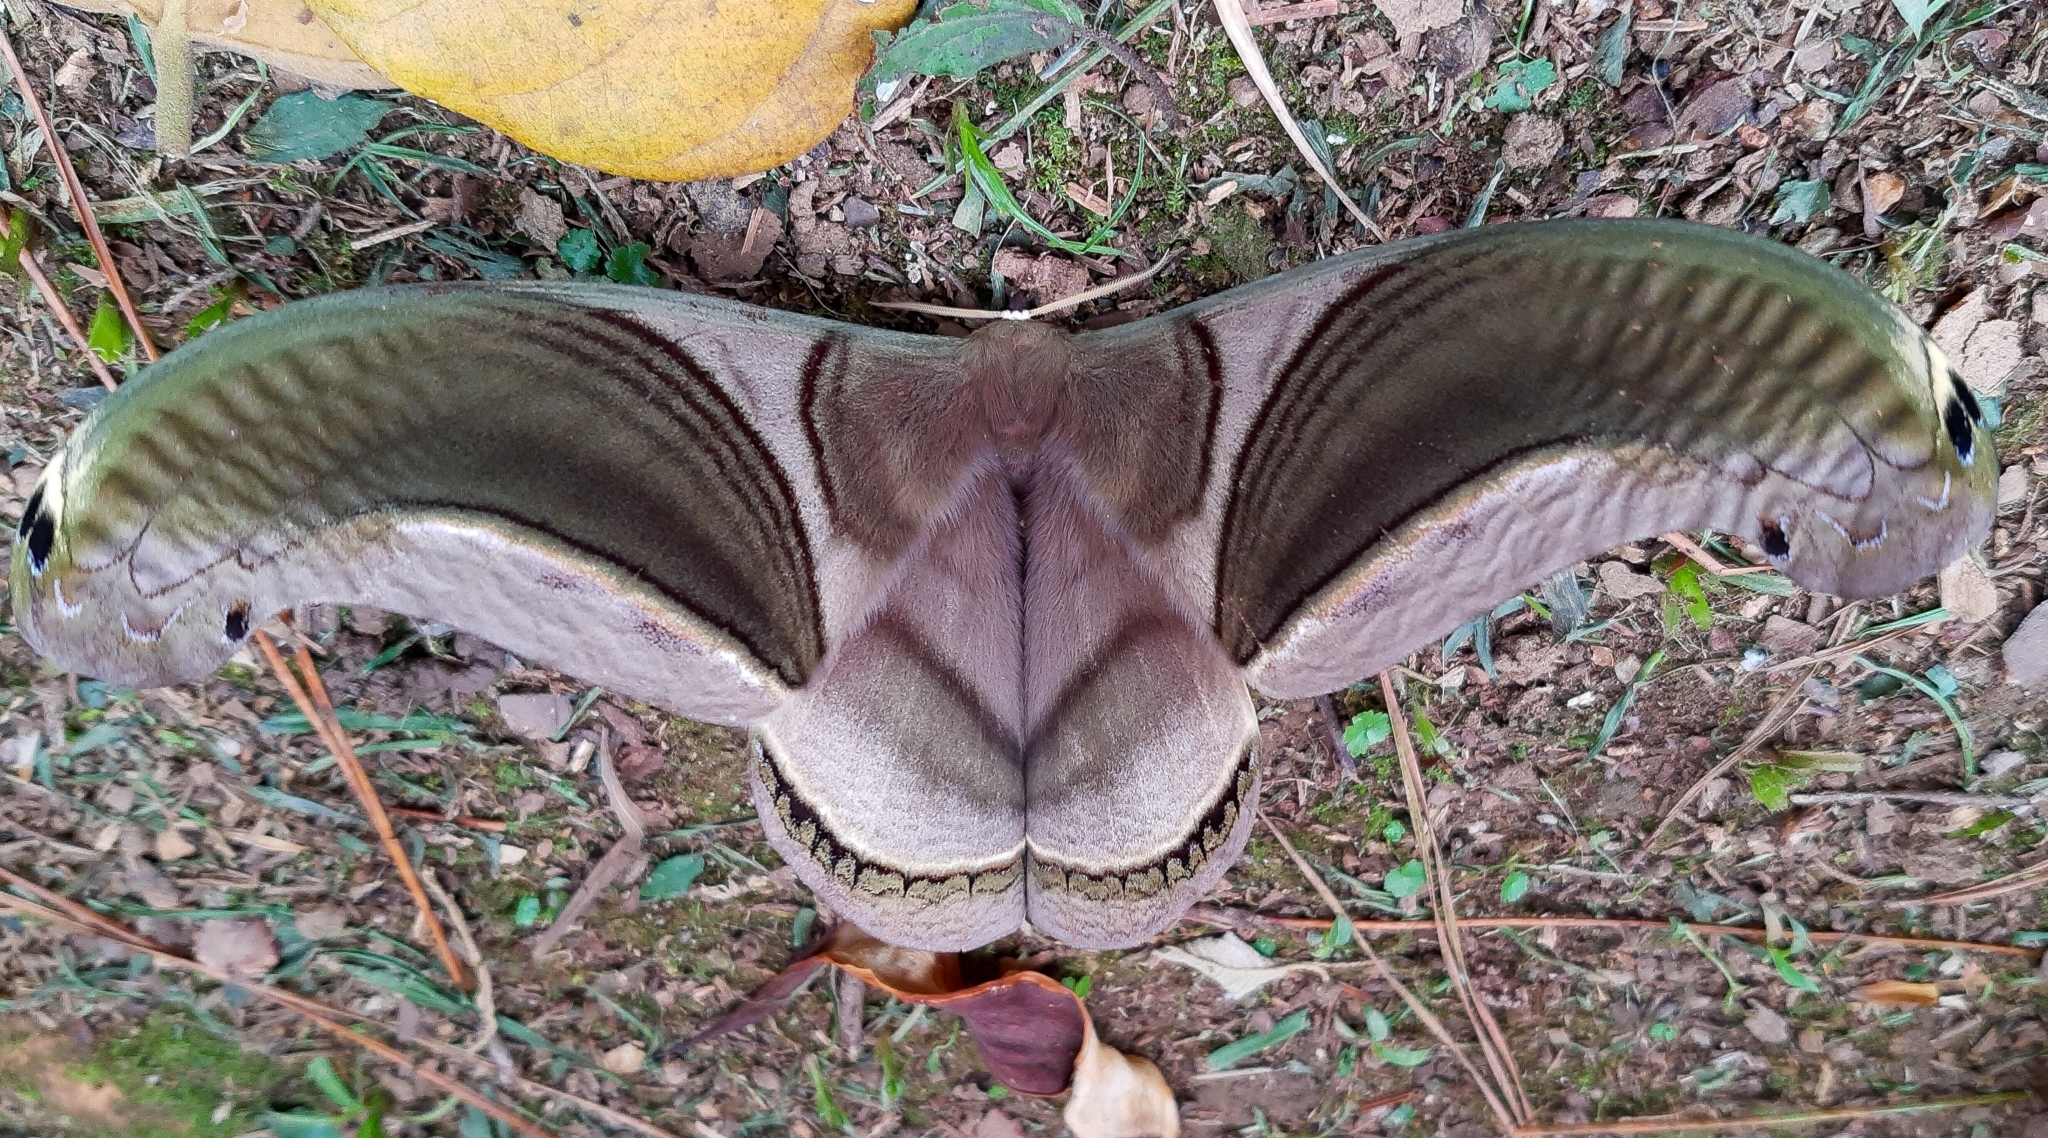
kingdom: Animalia
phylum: Arthropoda
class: Insecta
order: Lepidoptera
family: Saturniidae
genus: Rhescyntis
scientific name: Rhescyntis pseudomartii
